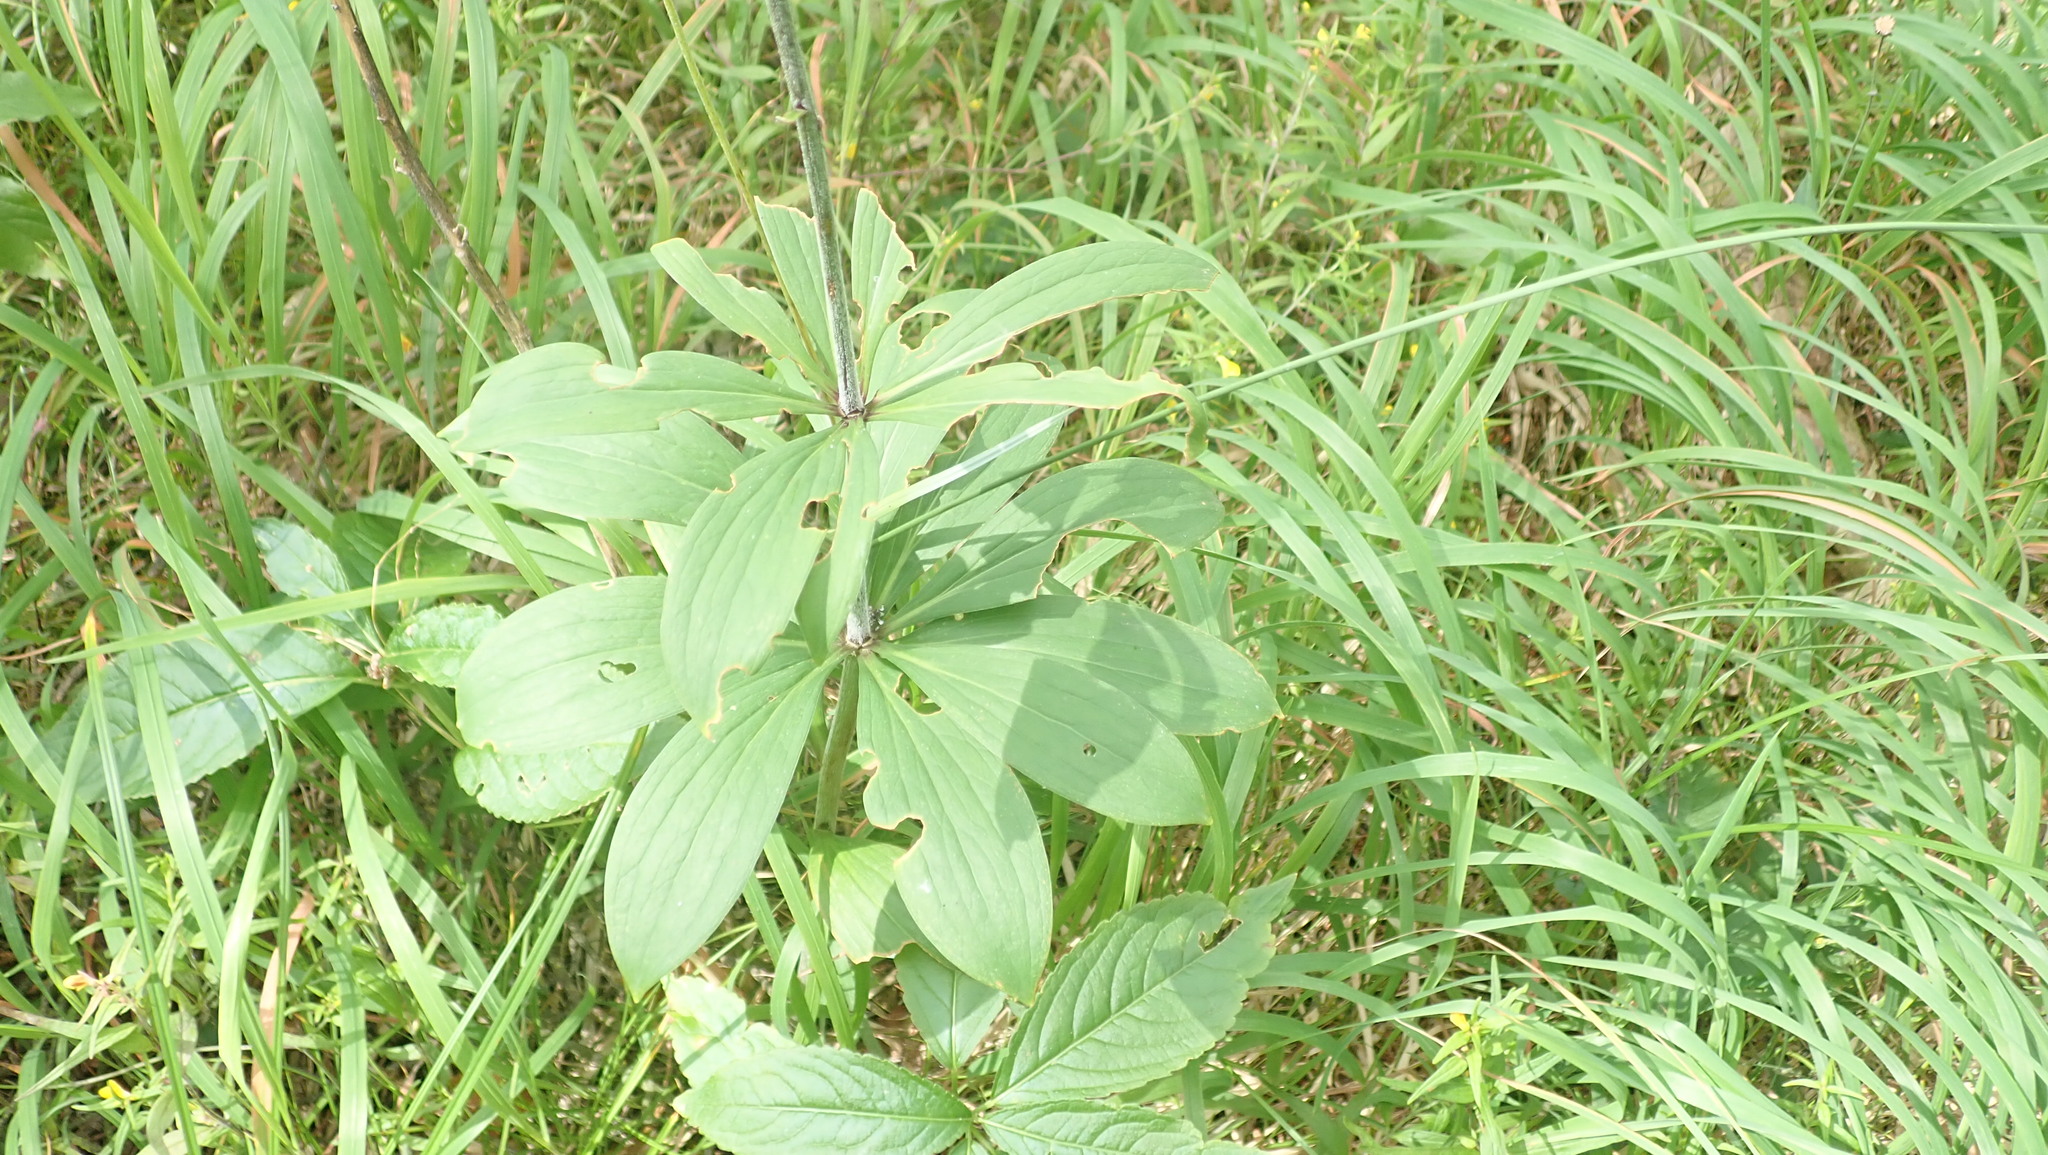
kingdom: Plantae
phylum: Tracheophyta
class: Liliopsida
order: Liliales
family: Liliaceae
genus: Lilium
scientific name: Lilium martagon
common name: Martagon lily
